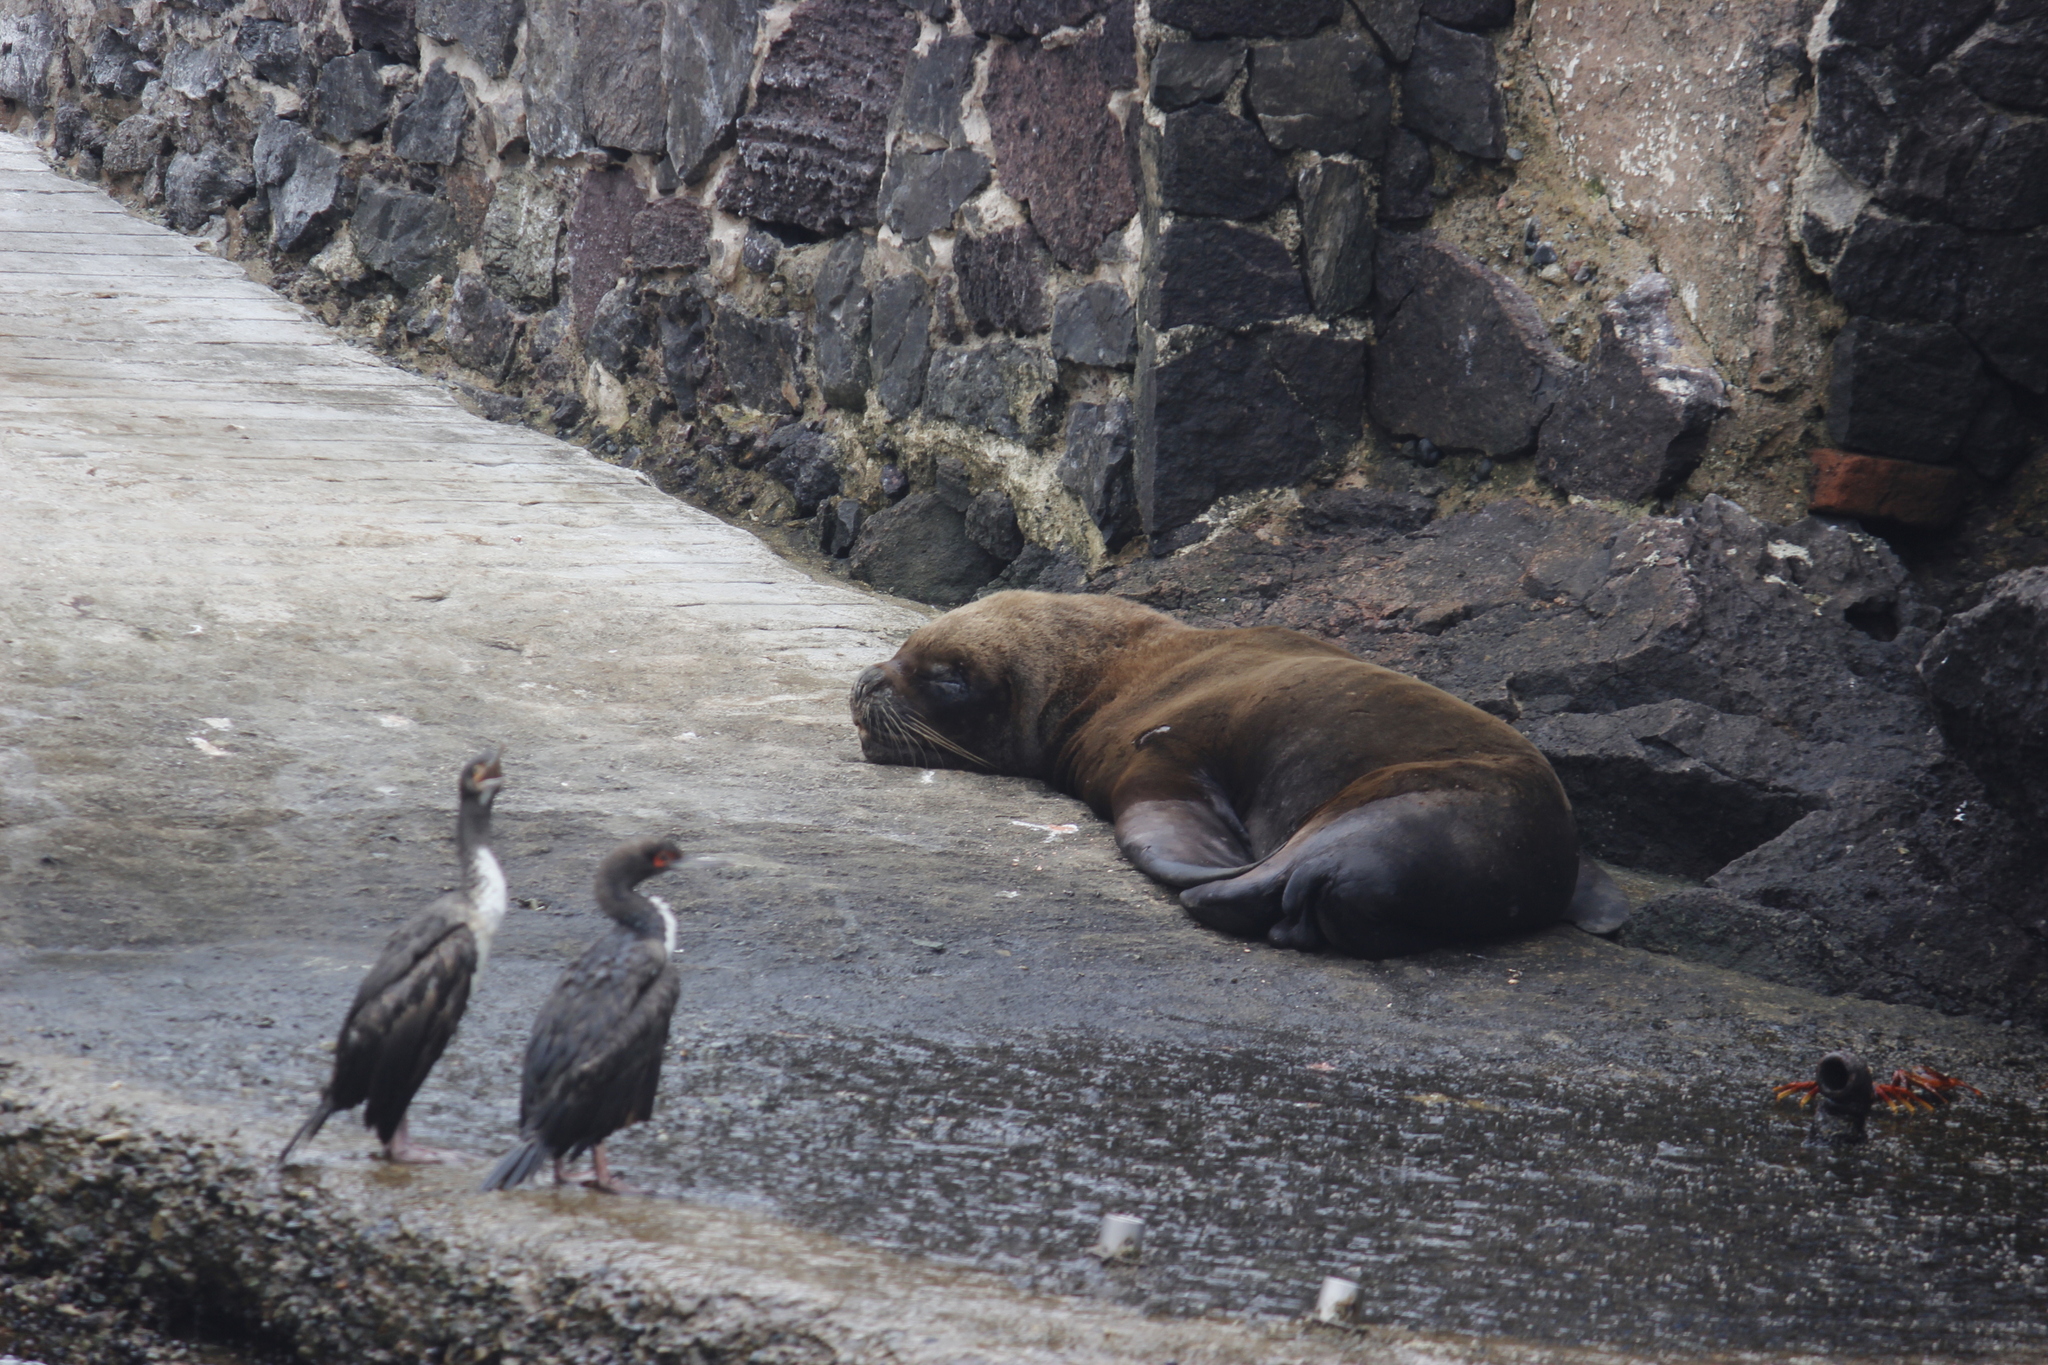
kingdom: Animalia
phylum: Chordata
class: Mammalia
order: Carnivora
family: Otariidae
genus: Otaria
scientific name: Otaria byronia
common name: South american sea lion
